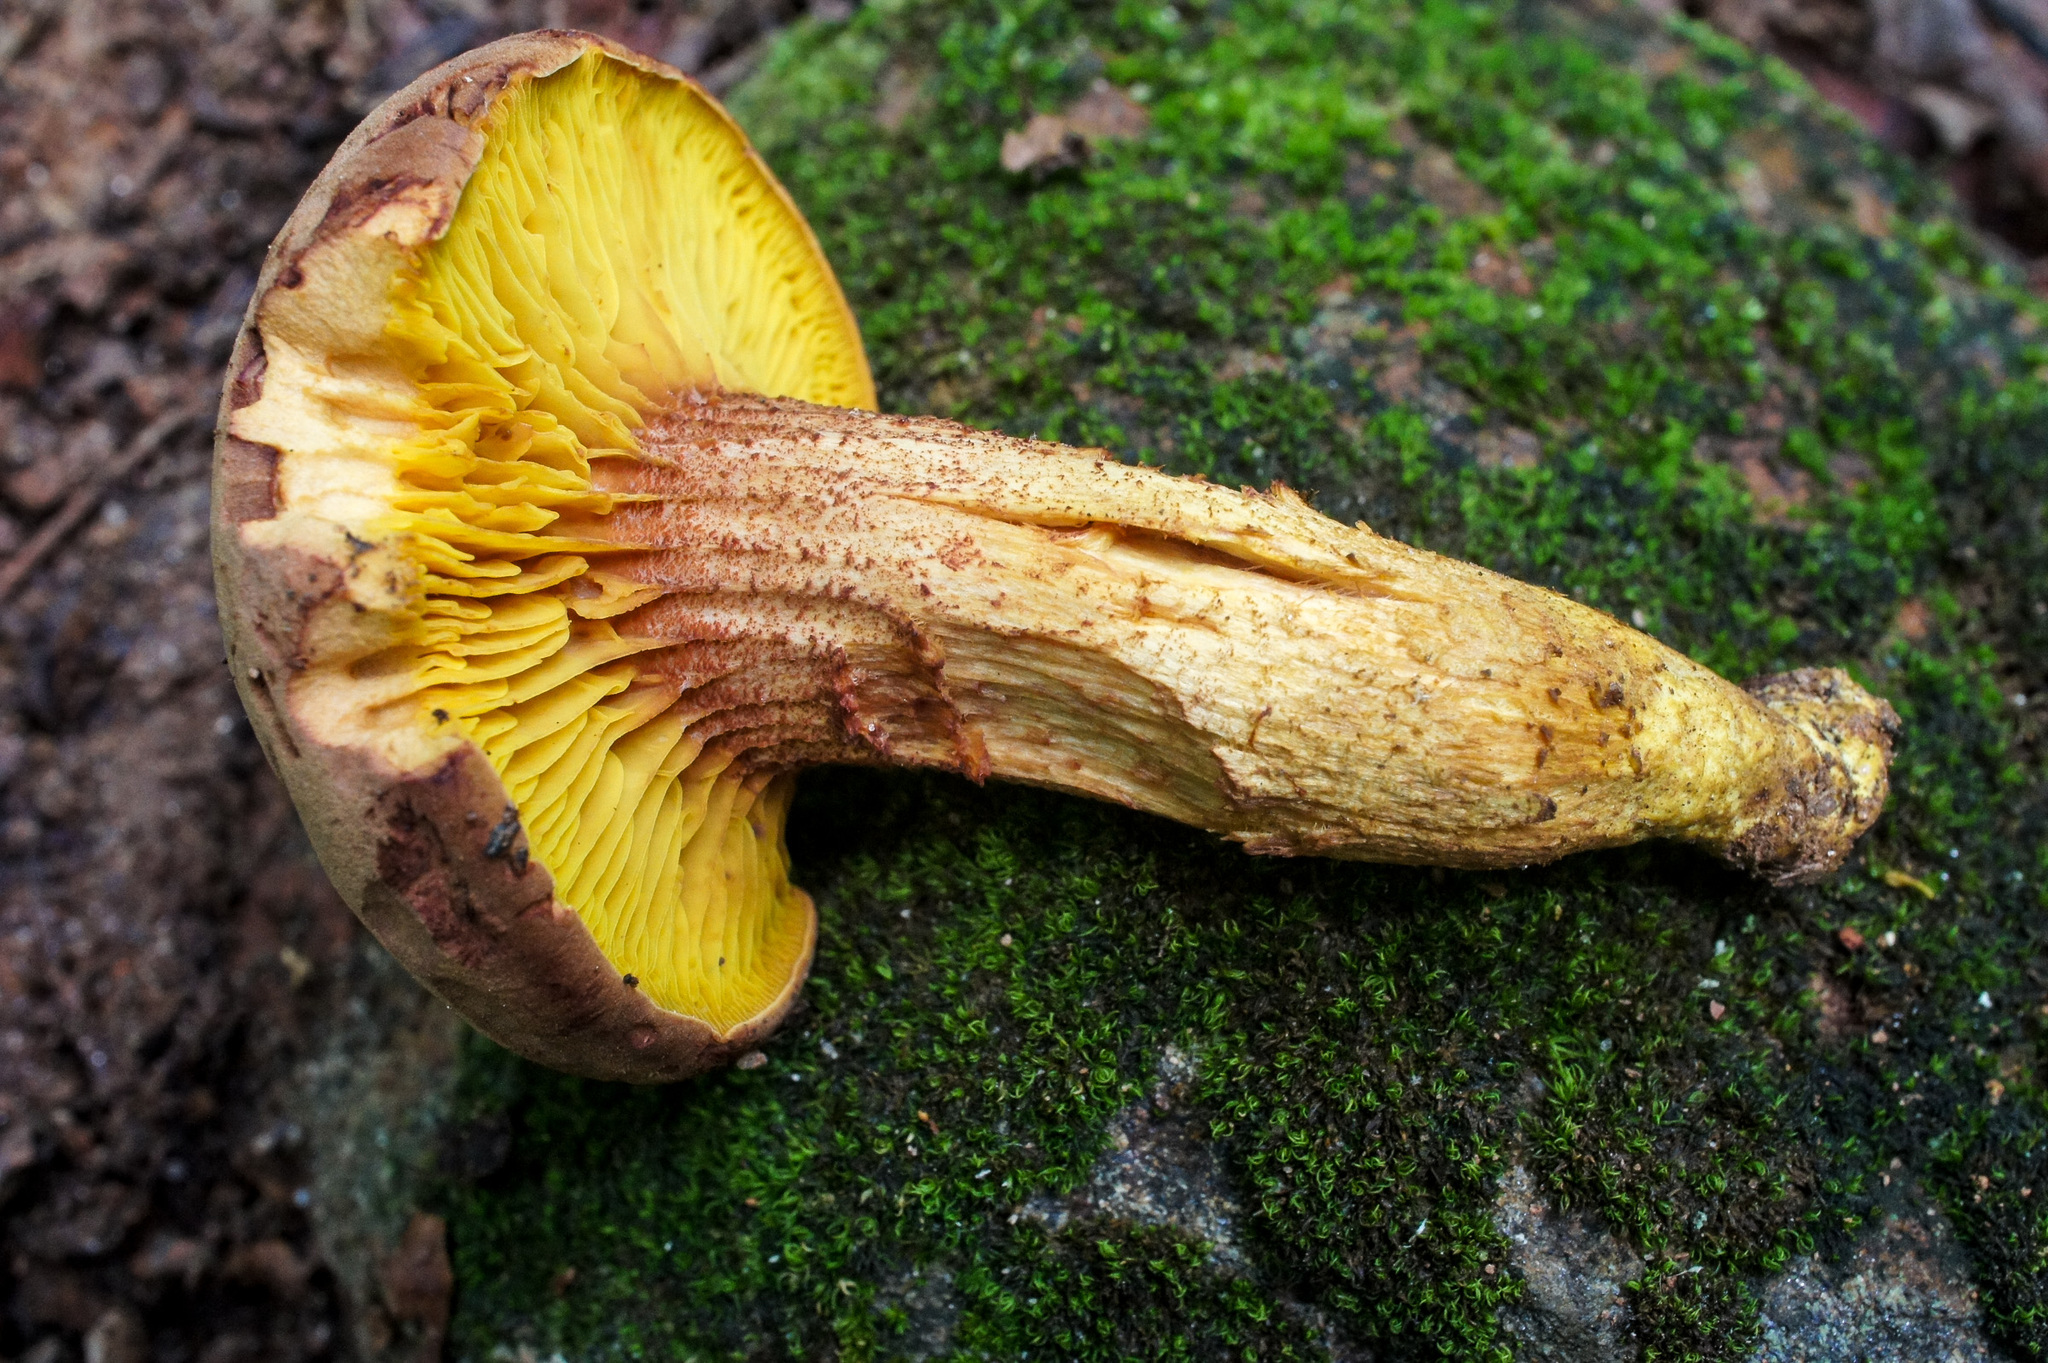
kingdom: Fungi
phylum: Basidiomycota
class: Agaricomycetes
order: Boletales
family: Boletaceae
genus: Phylloporus
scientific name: Phylloporus rhodoxanthus
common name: Golden gilled bolete
